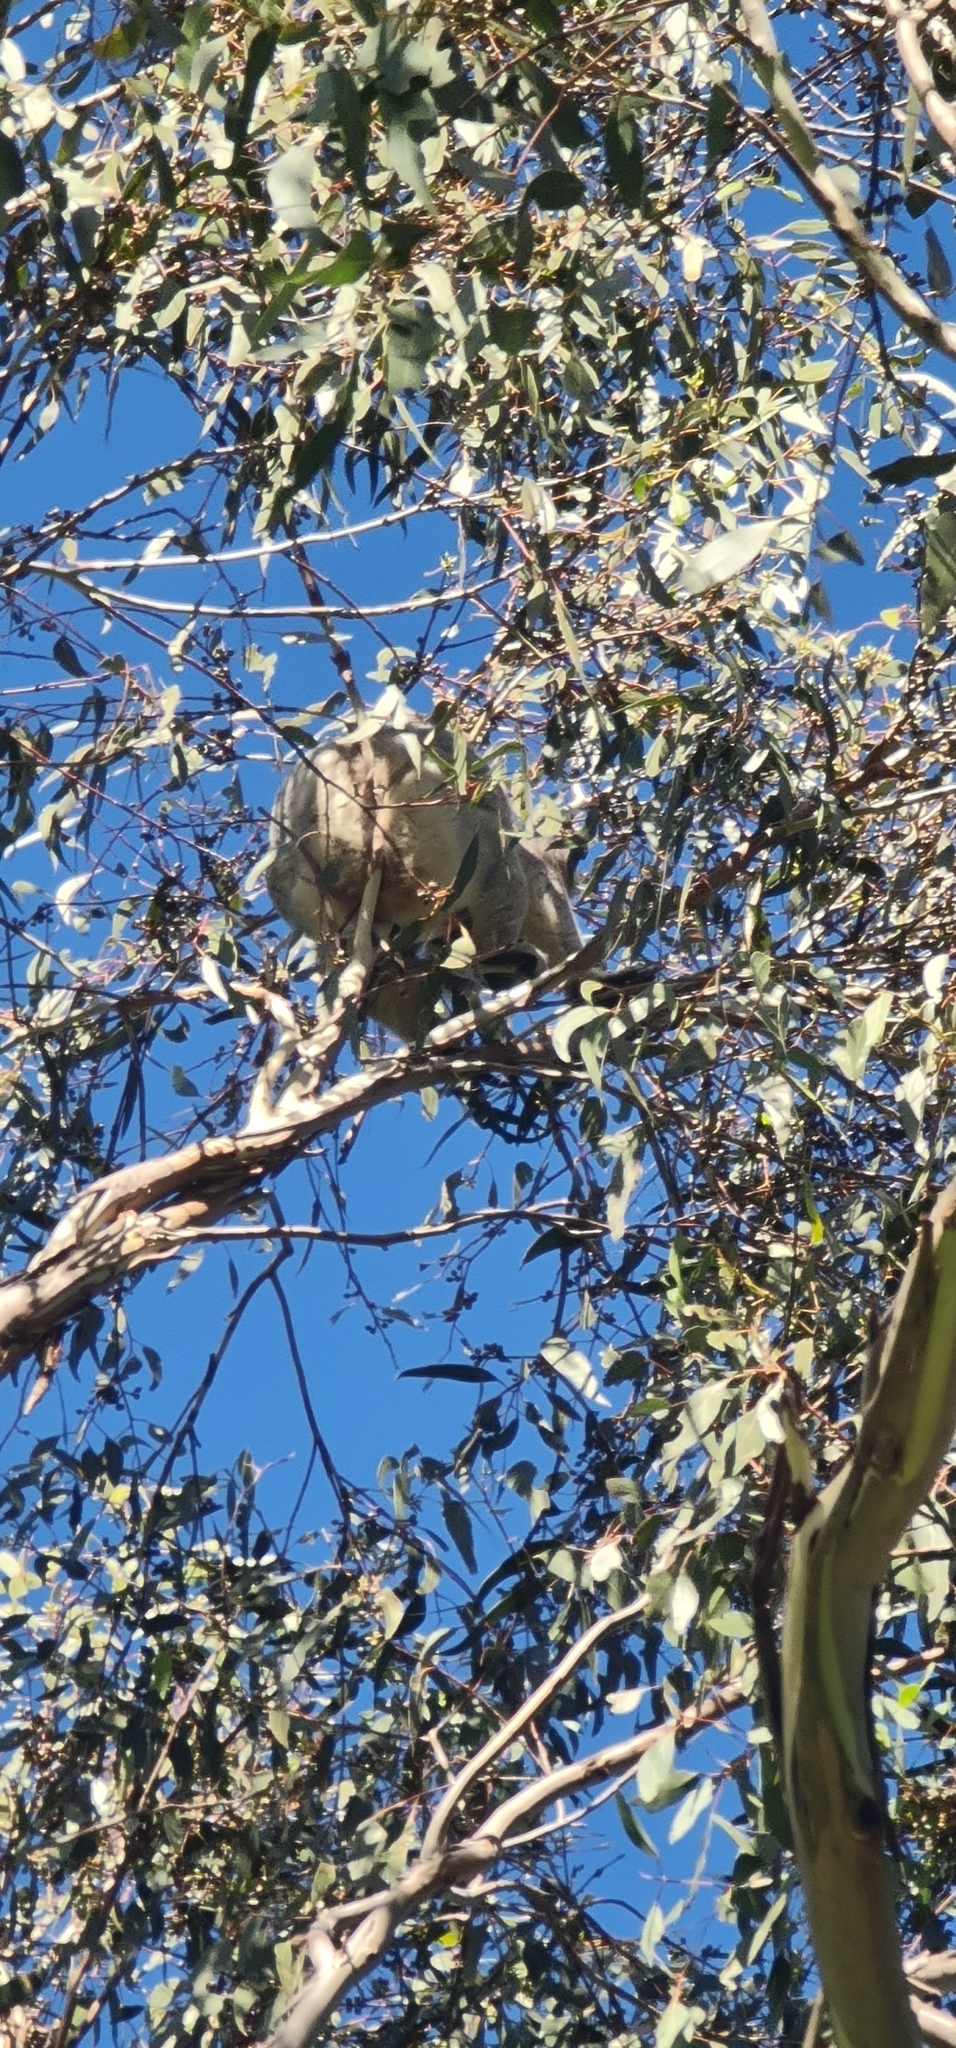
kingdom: Animalia
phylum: Chordata
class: Mammalia
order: Diprotodontia
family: Phascolarctidae
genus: Phascolarctos
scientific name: Phascolarctos cinereus
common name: Koala
